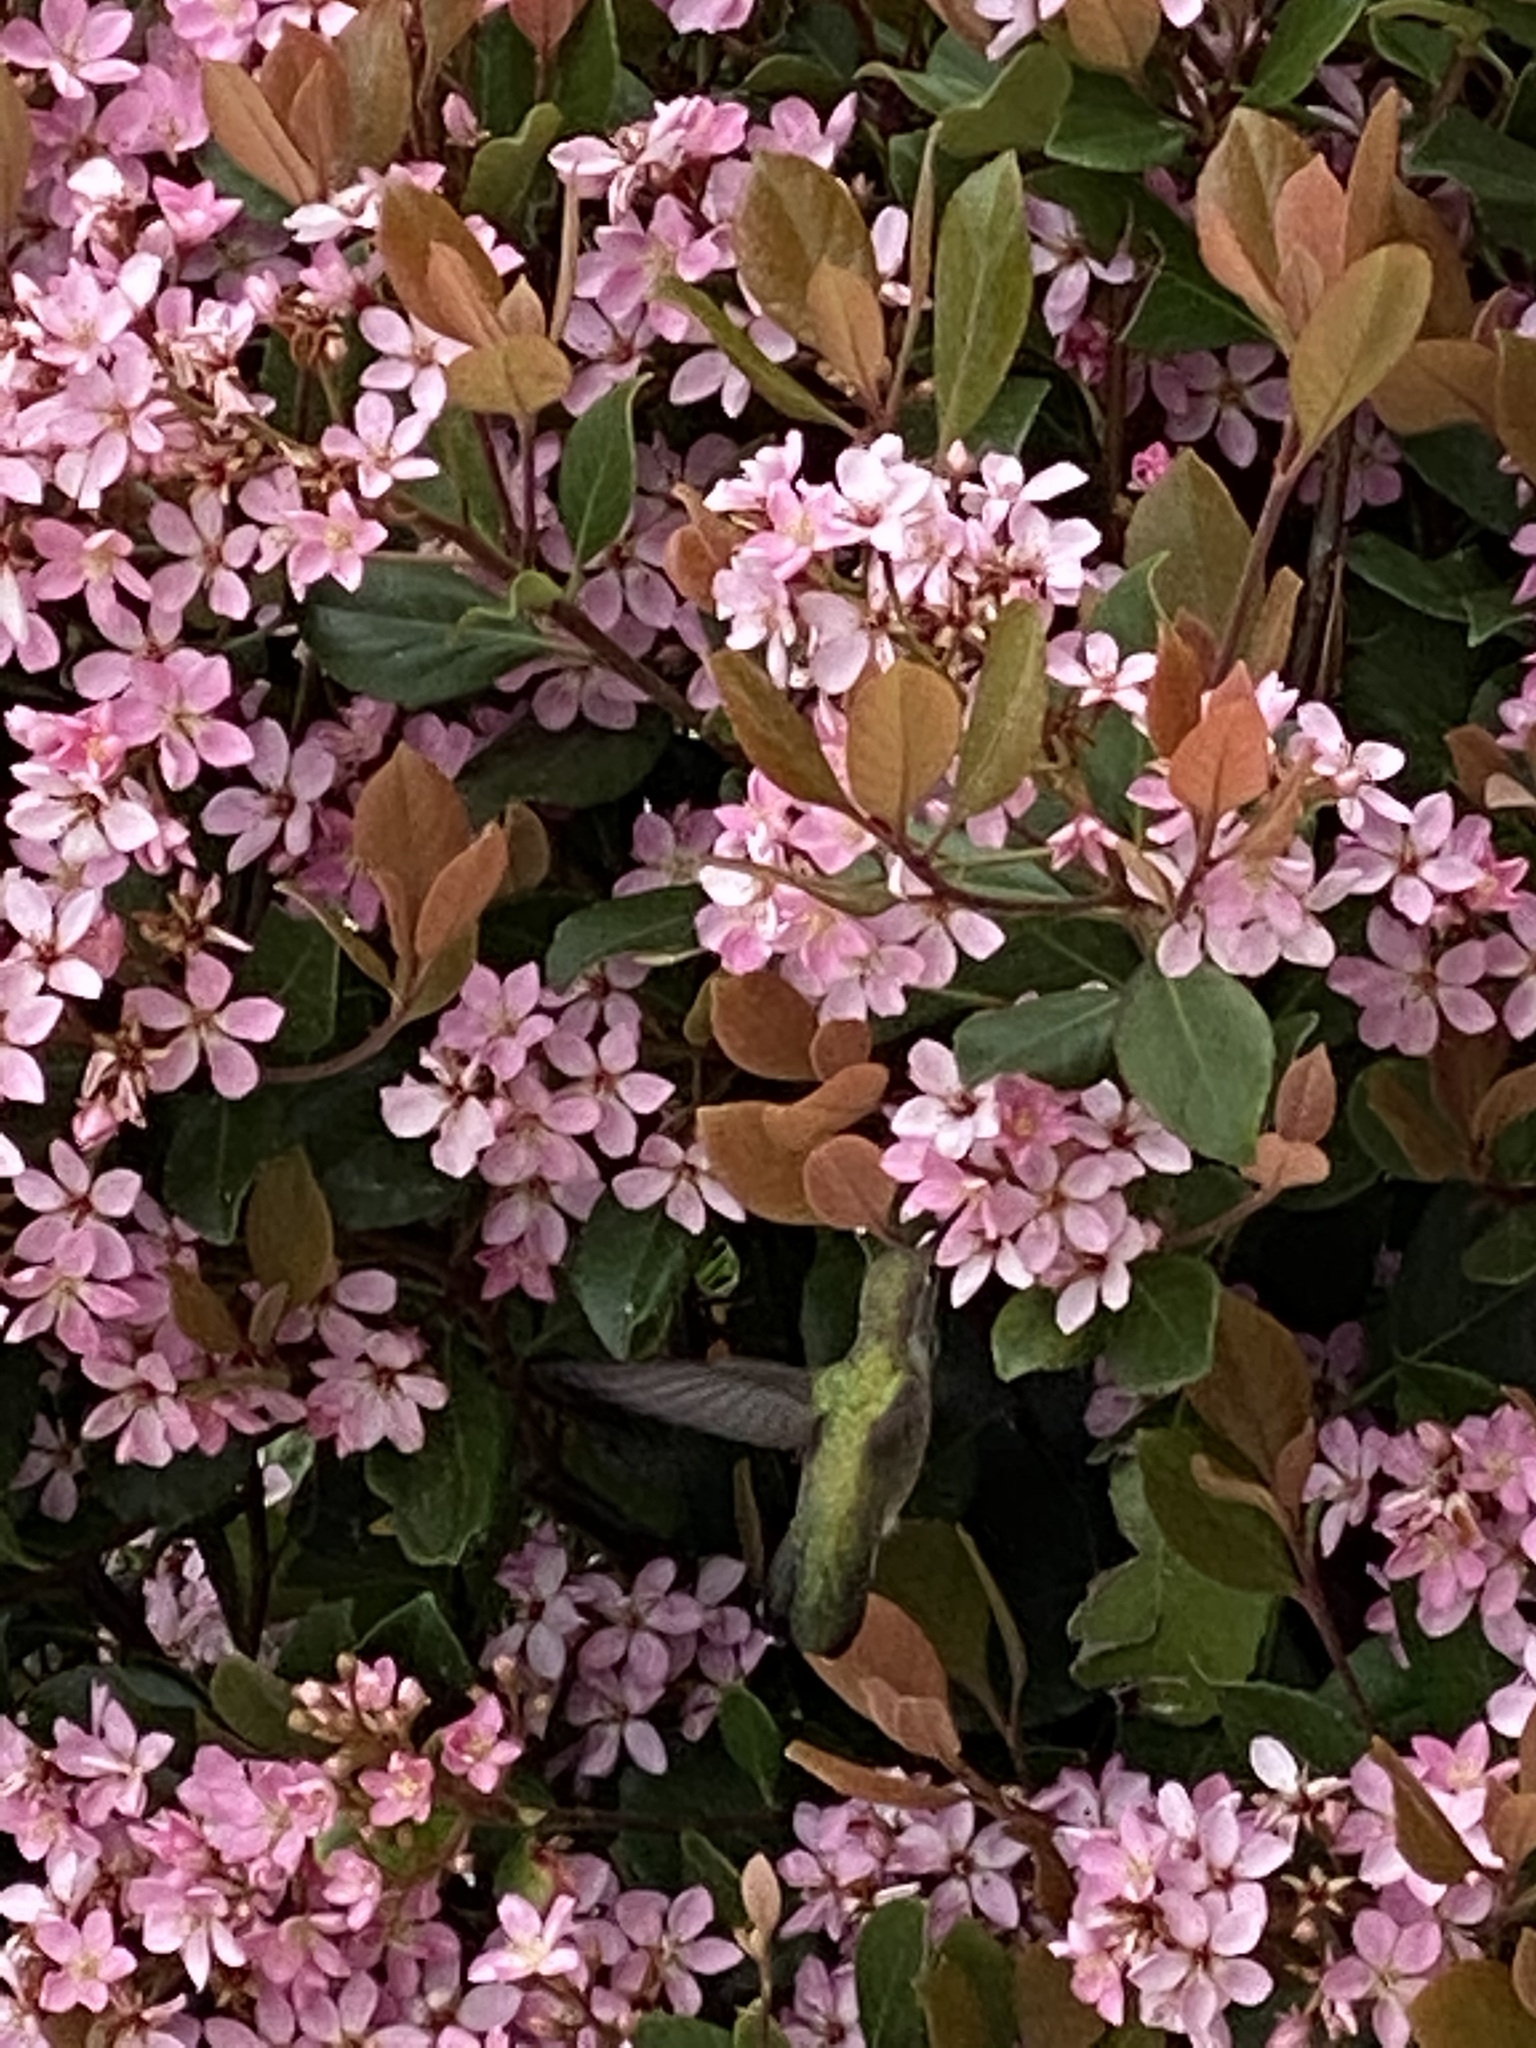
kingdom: Animalia
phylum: Chordata
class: Aves
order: Apodiformes
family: Trochilidae
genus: Calypte
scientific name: Calypte anna
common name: Anna's hummingbird
